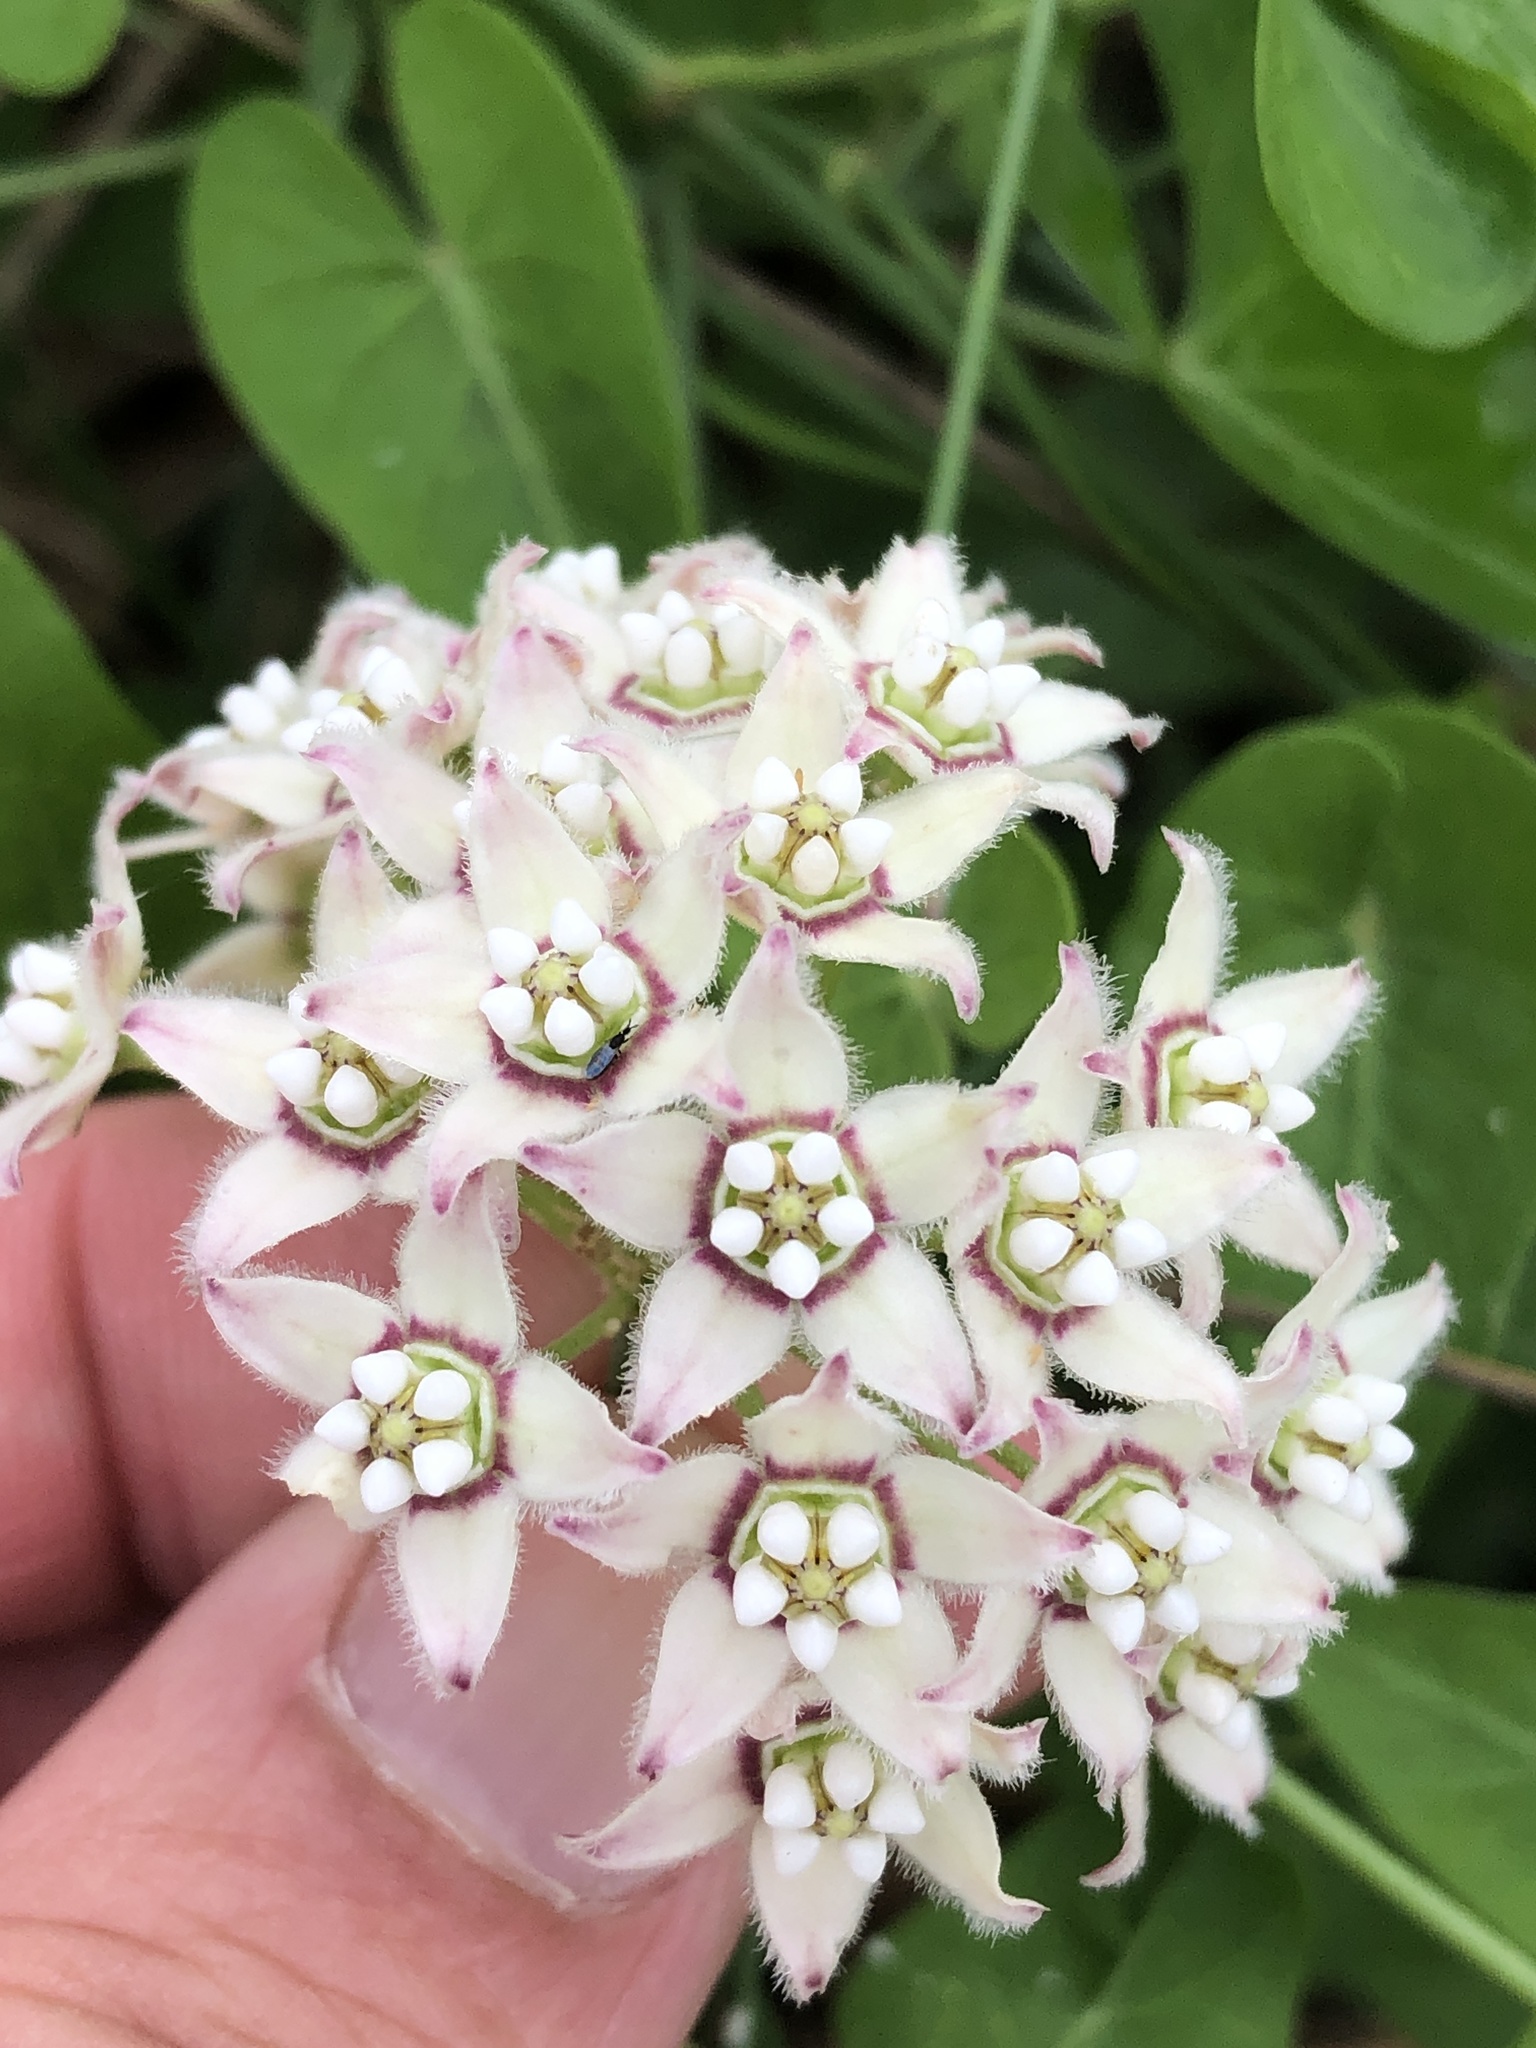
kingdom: Plantae
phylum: Tracheophyta
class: Magnoliopsida
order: Gentianales
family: Apocynaceae
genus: Funastrum
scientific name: Funastrum cynanchoides
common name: Climbing-milkweed
